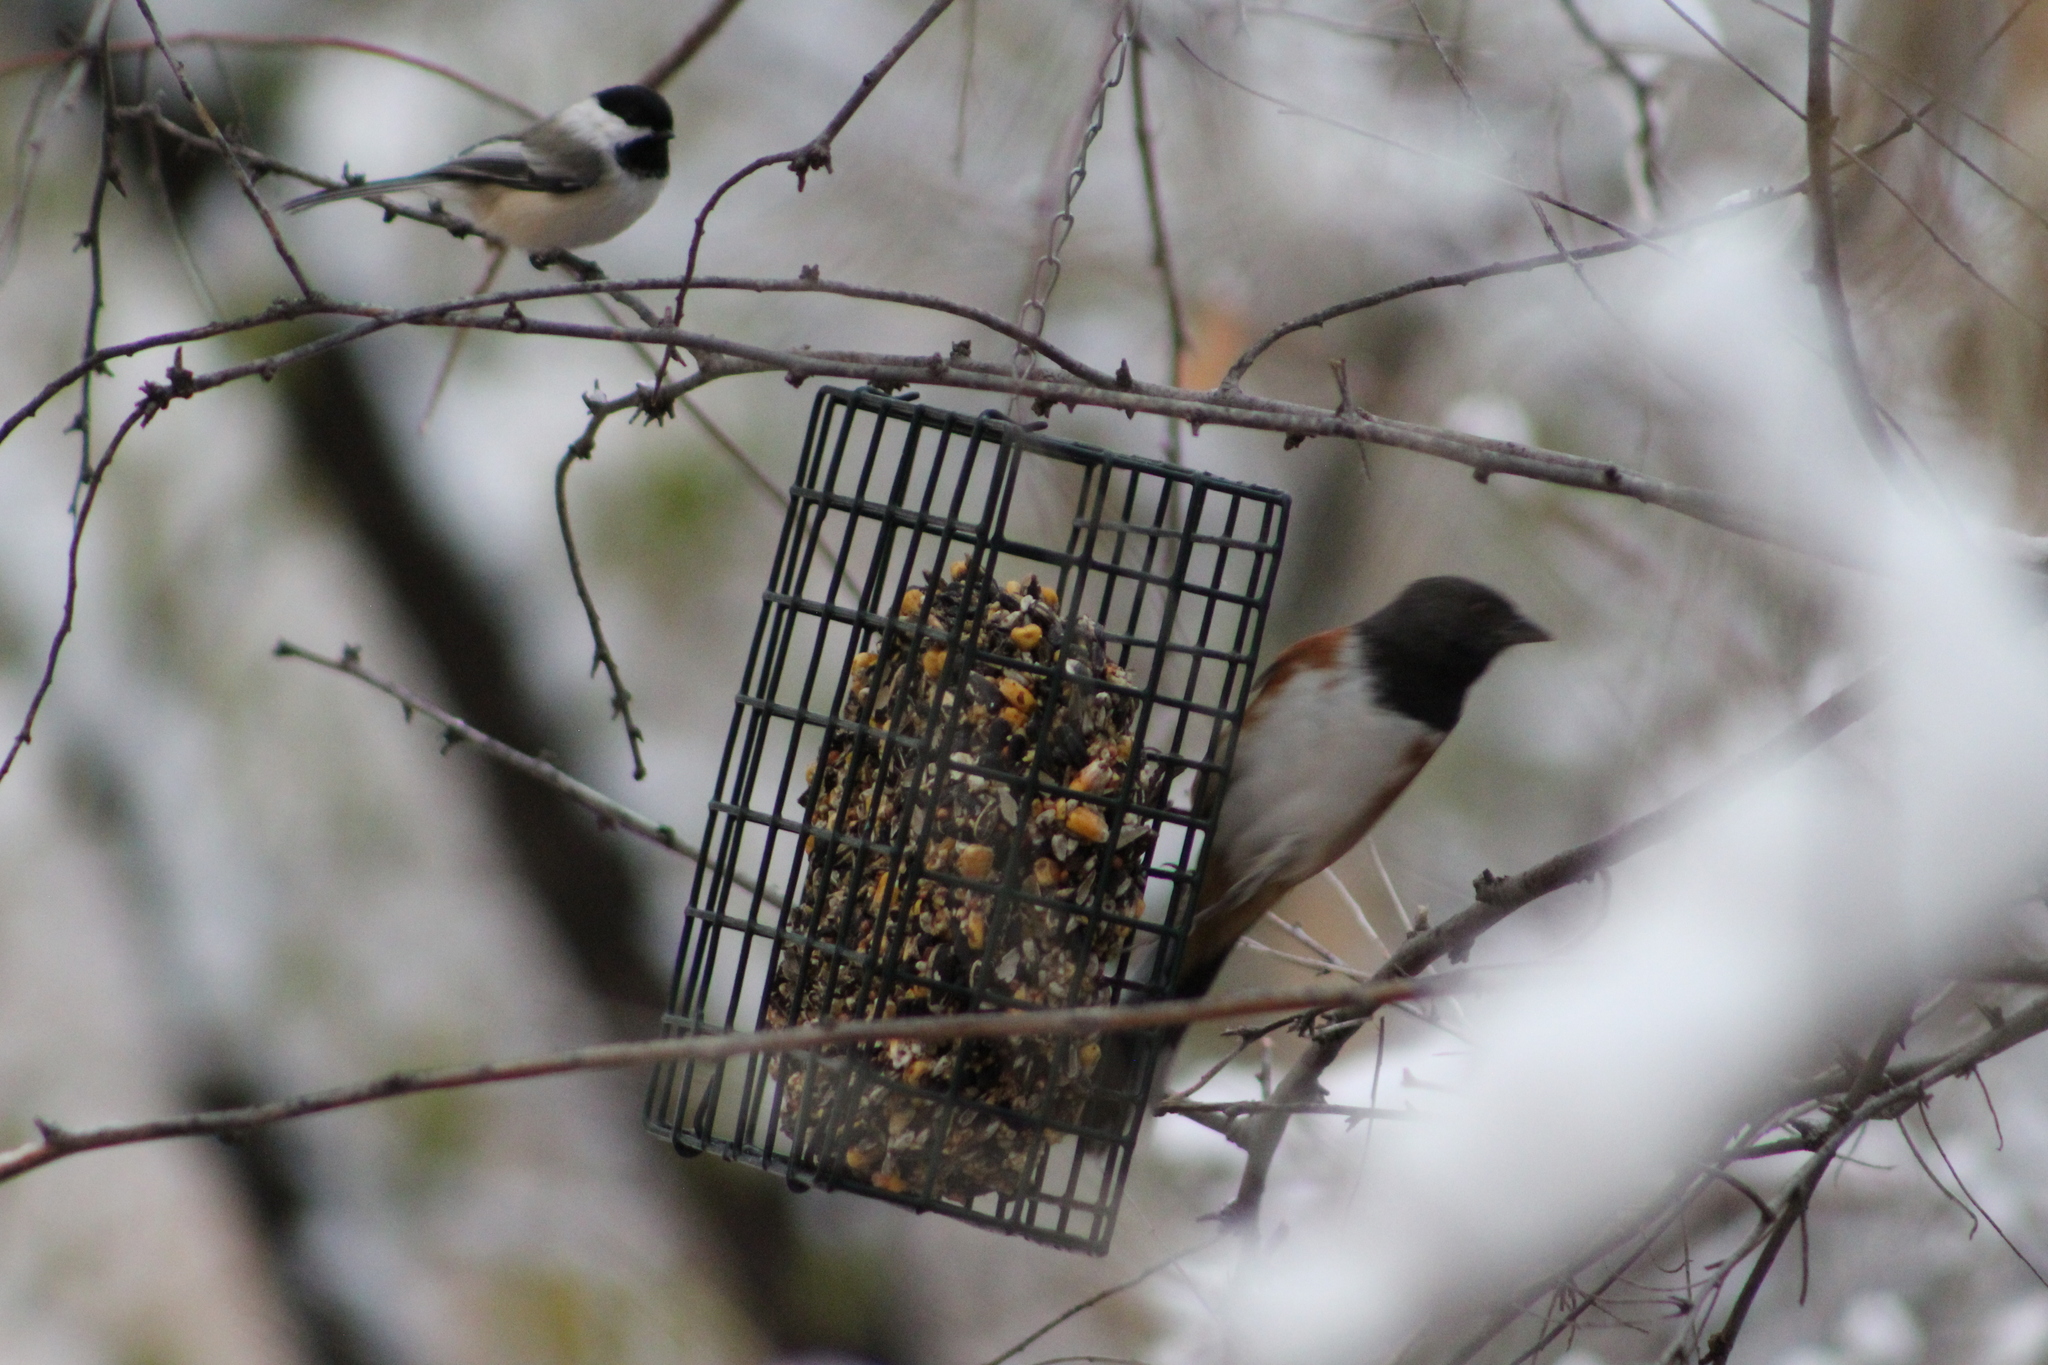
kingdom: Animalia
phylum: Chordata
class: Aves
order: Passeriformes
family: Passerellidae
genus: Pipilo
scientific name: Pipilo maculatus
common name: Spotted towhee
